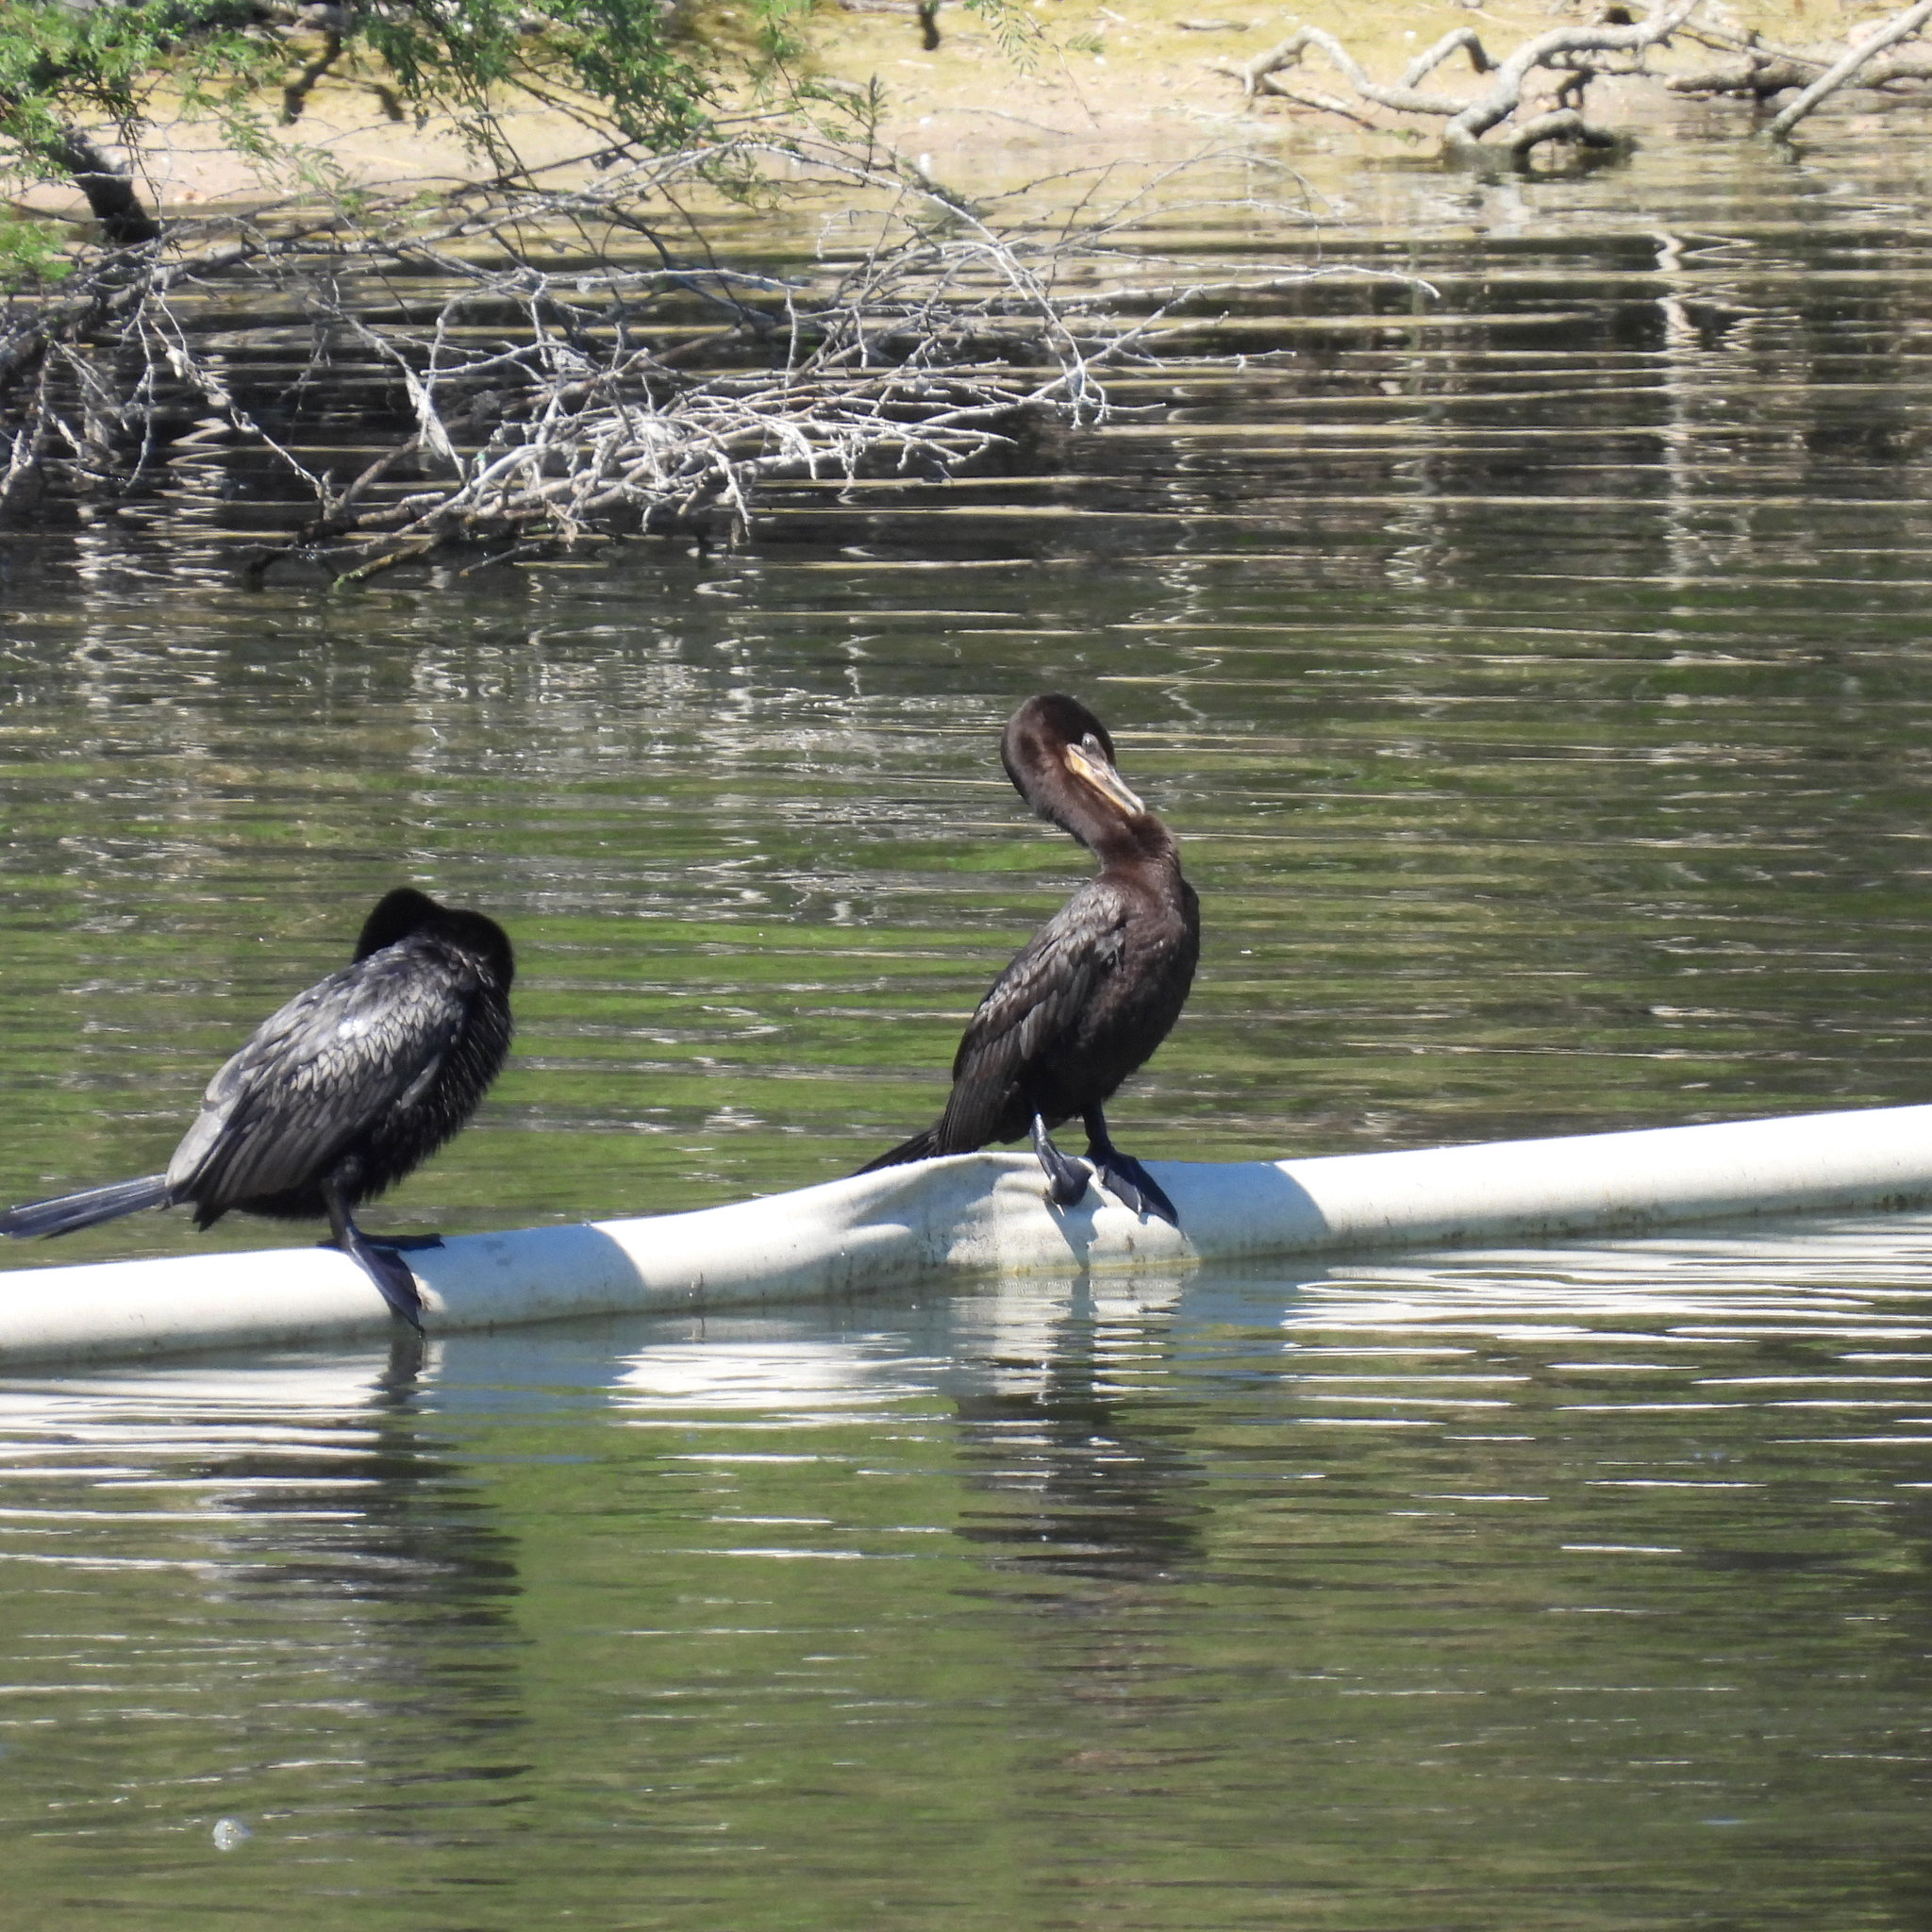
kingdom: Animalia
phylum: Chordata
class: Aves
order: Suliformes
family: Phalacrocoracidae
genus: Phalacrocorax
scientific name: Phalacrocorax brasilianus
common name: Neotropic cormorant
